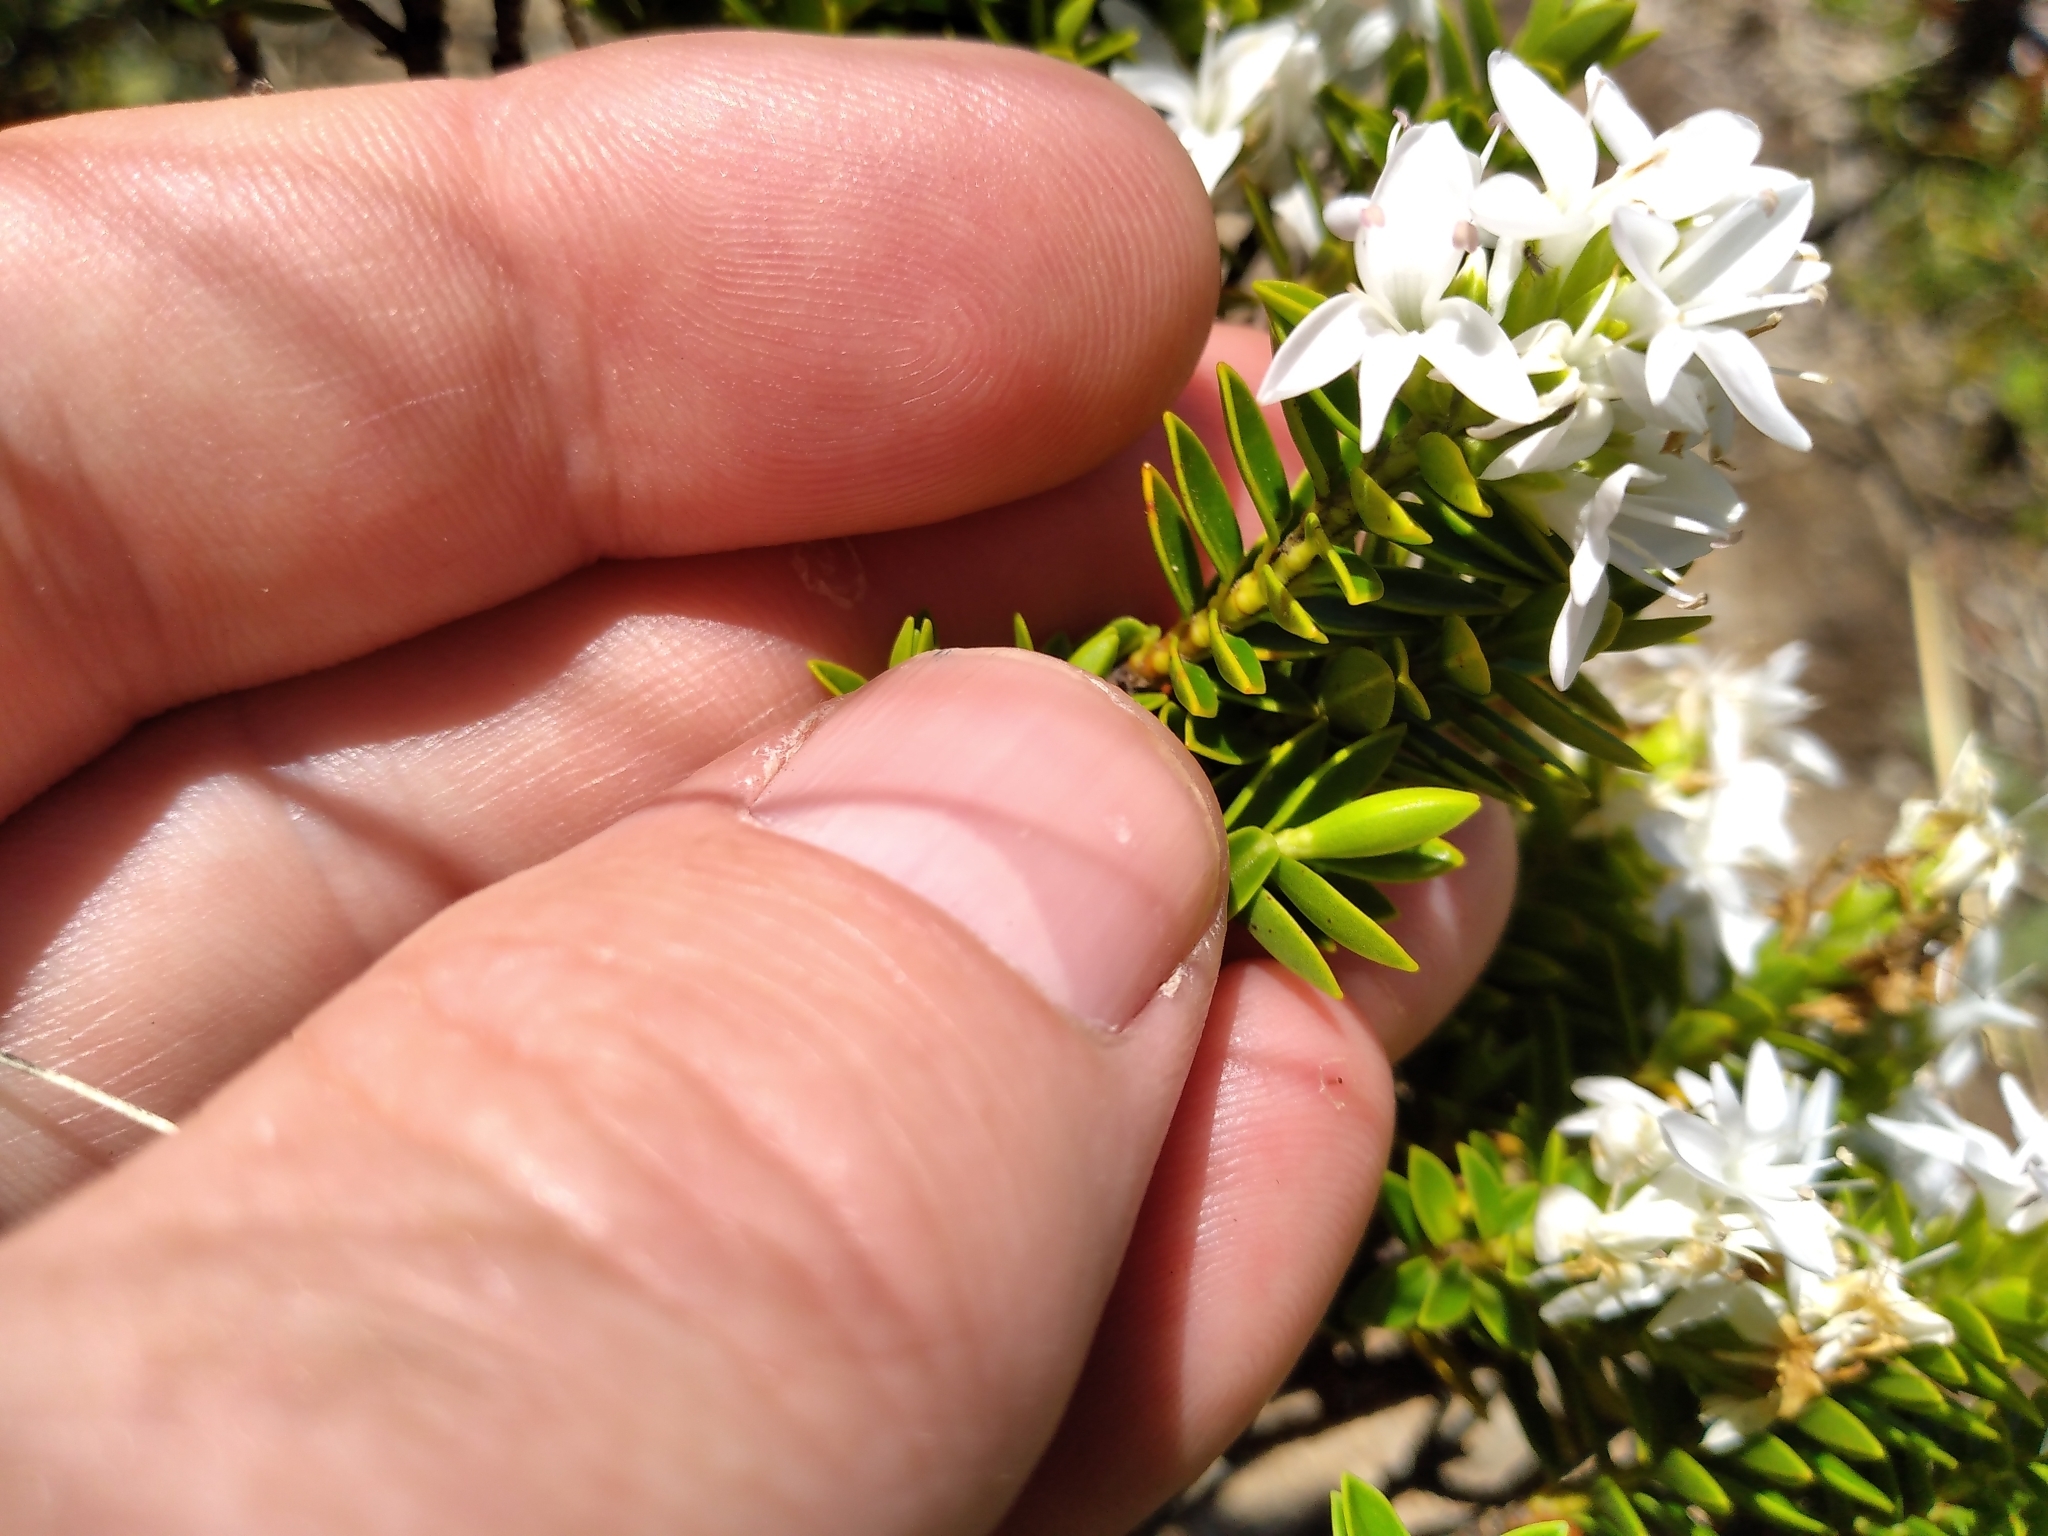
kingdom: Plantae
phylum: Tracheophyta
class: Magnoliopsida
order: Lamiales
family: Plantaginaceae
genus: Veronica
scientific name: Veronica odora
